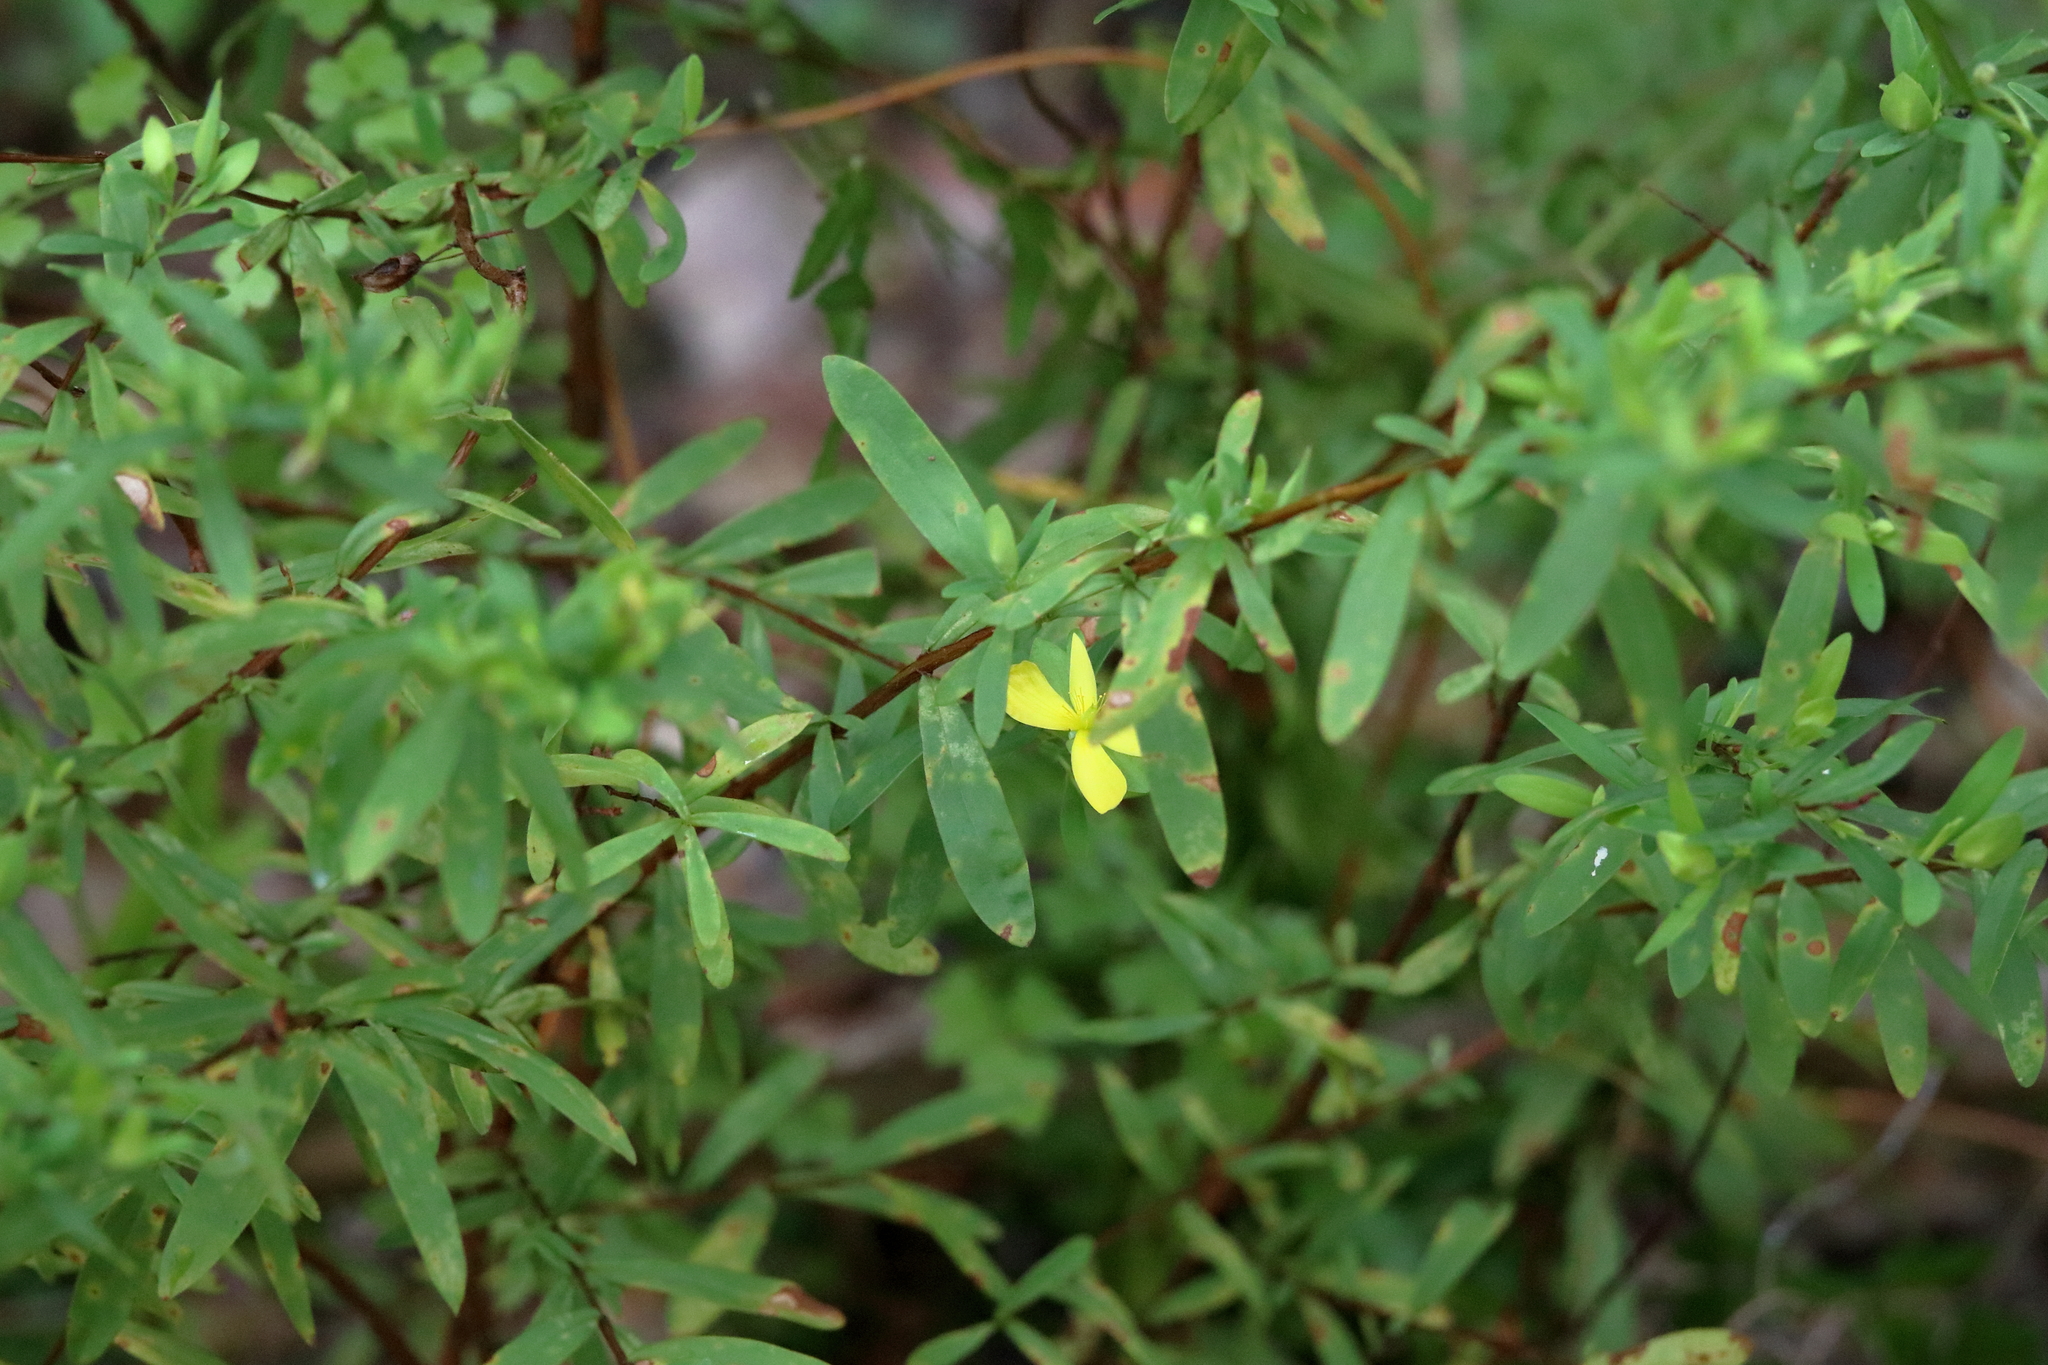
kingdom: Plantae
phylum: Tracheophyta
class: Magnoliopsida
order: Malpighiales
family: Hypericaceae
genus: Hypericum
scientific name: Hypericum hypericoides
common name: St. andrew's cross
